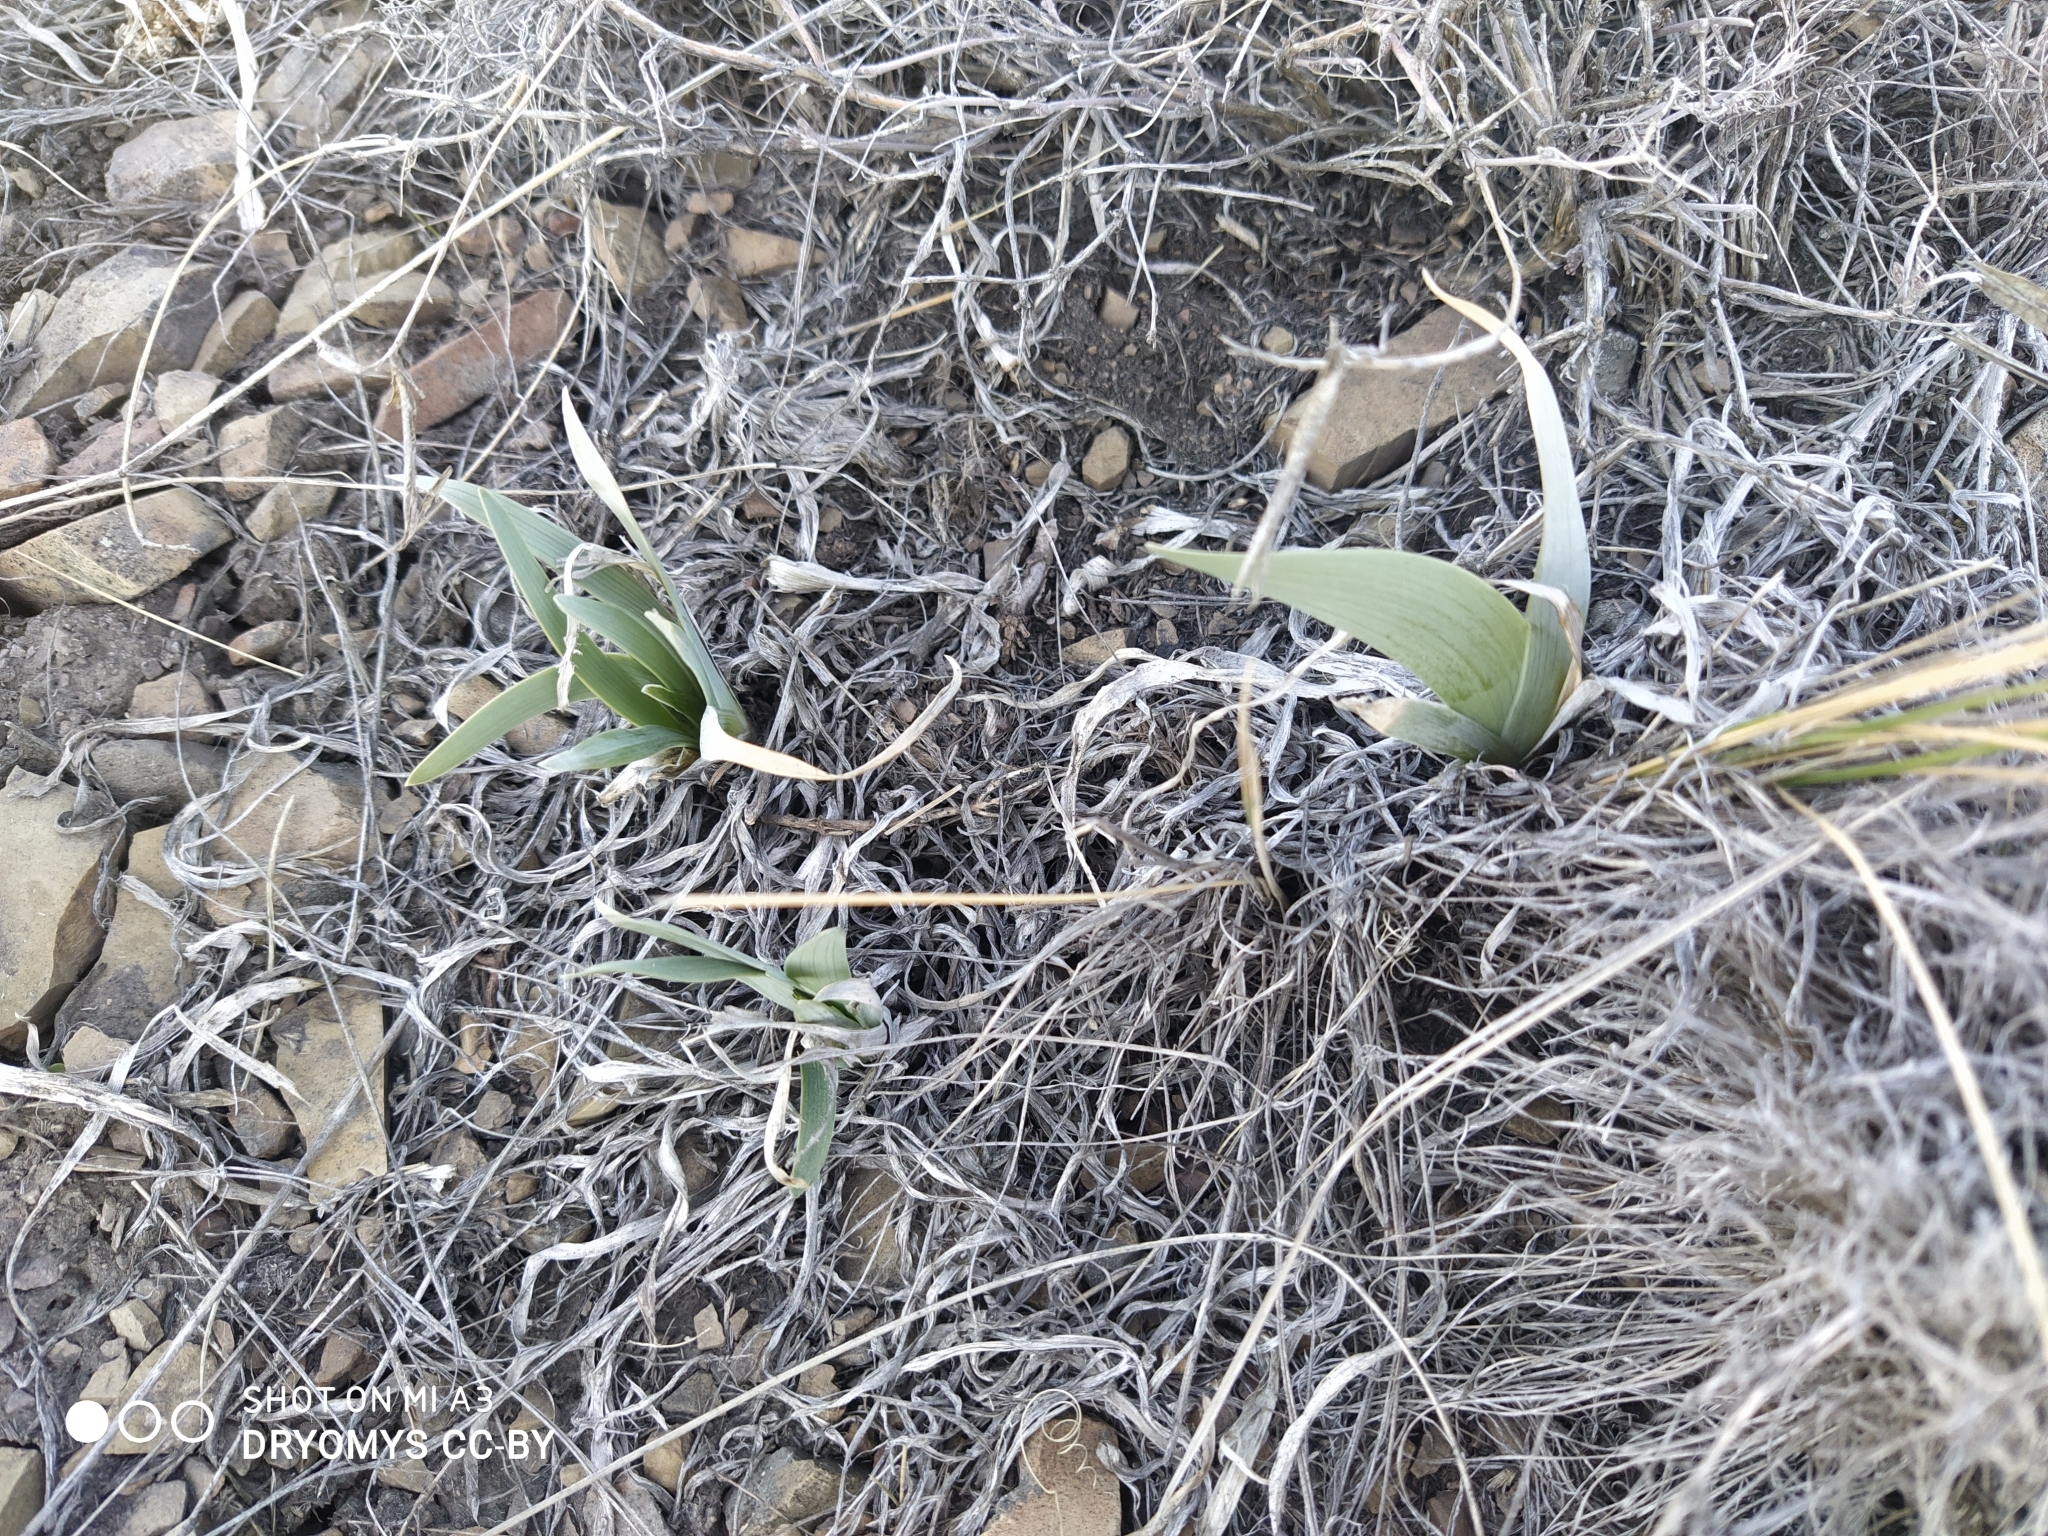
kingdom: Plantae
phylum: Tracheophyta
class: Liliopsida
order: Asparagales
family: Iridaceae
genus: Iris
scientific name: Iris glaucescens
